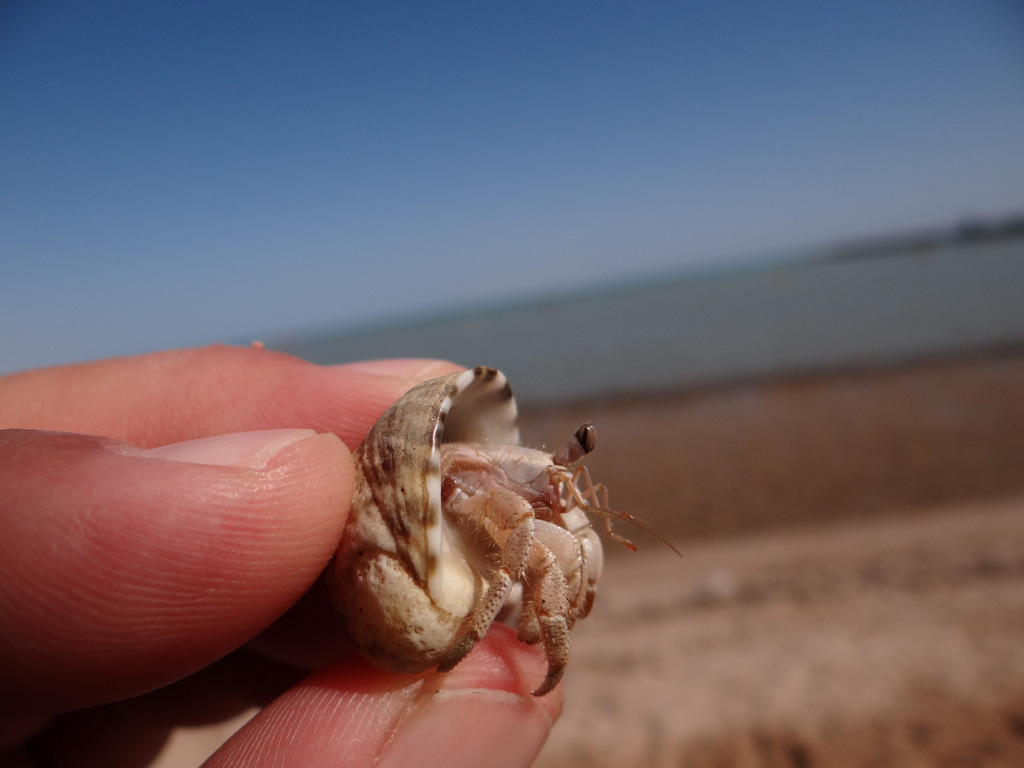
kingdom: Animalia
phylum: Arthropoda
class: Malacostraca
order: Decapoda
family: Coenobitidae
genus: Coenobita
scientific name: Coenobita scaevola
